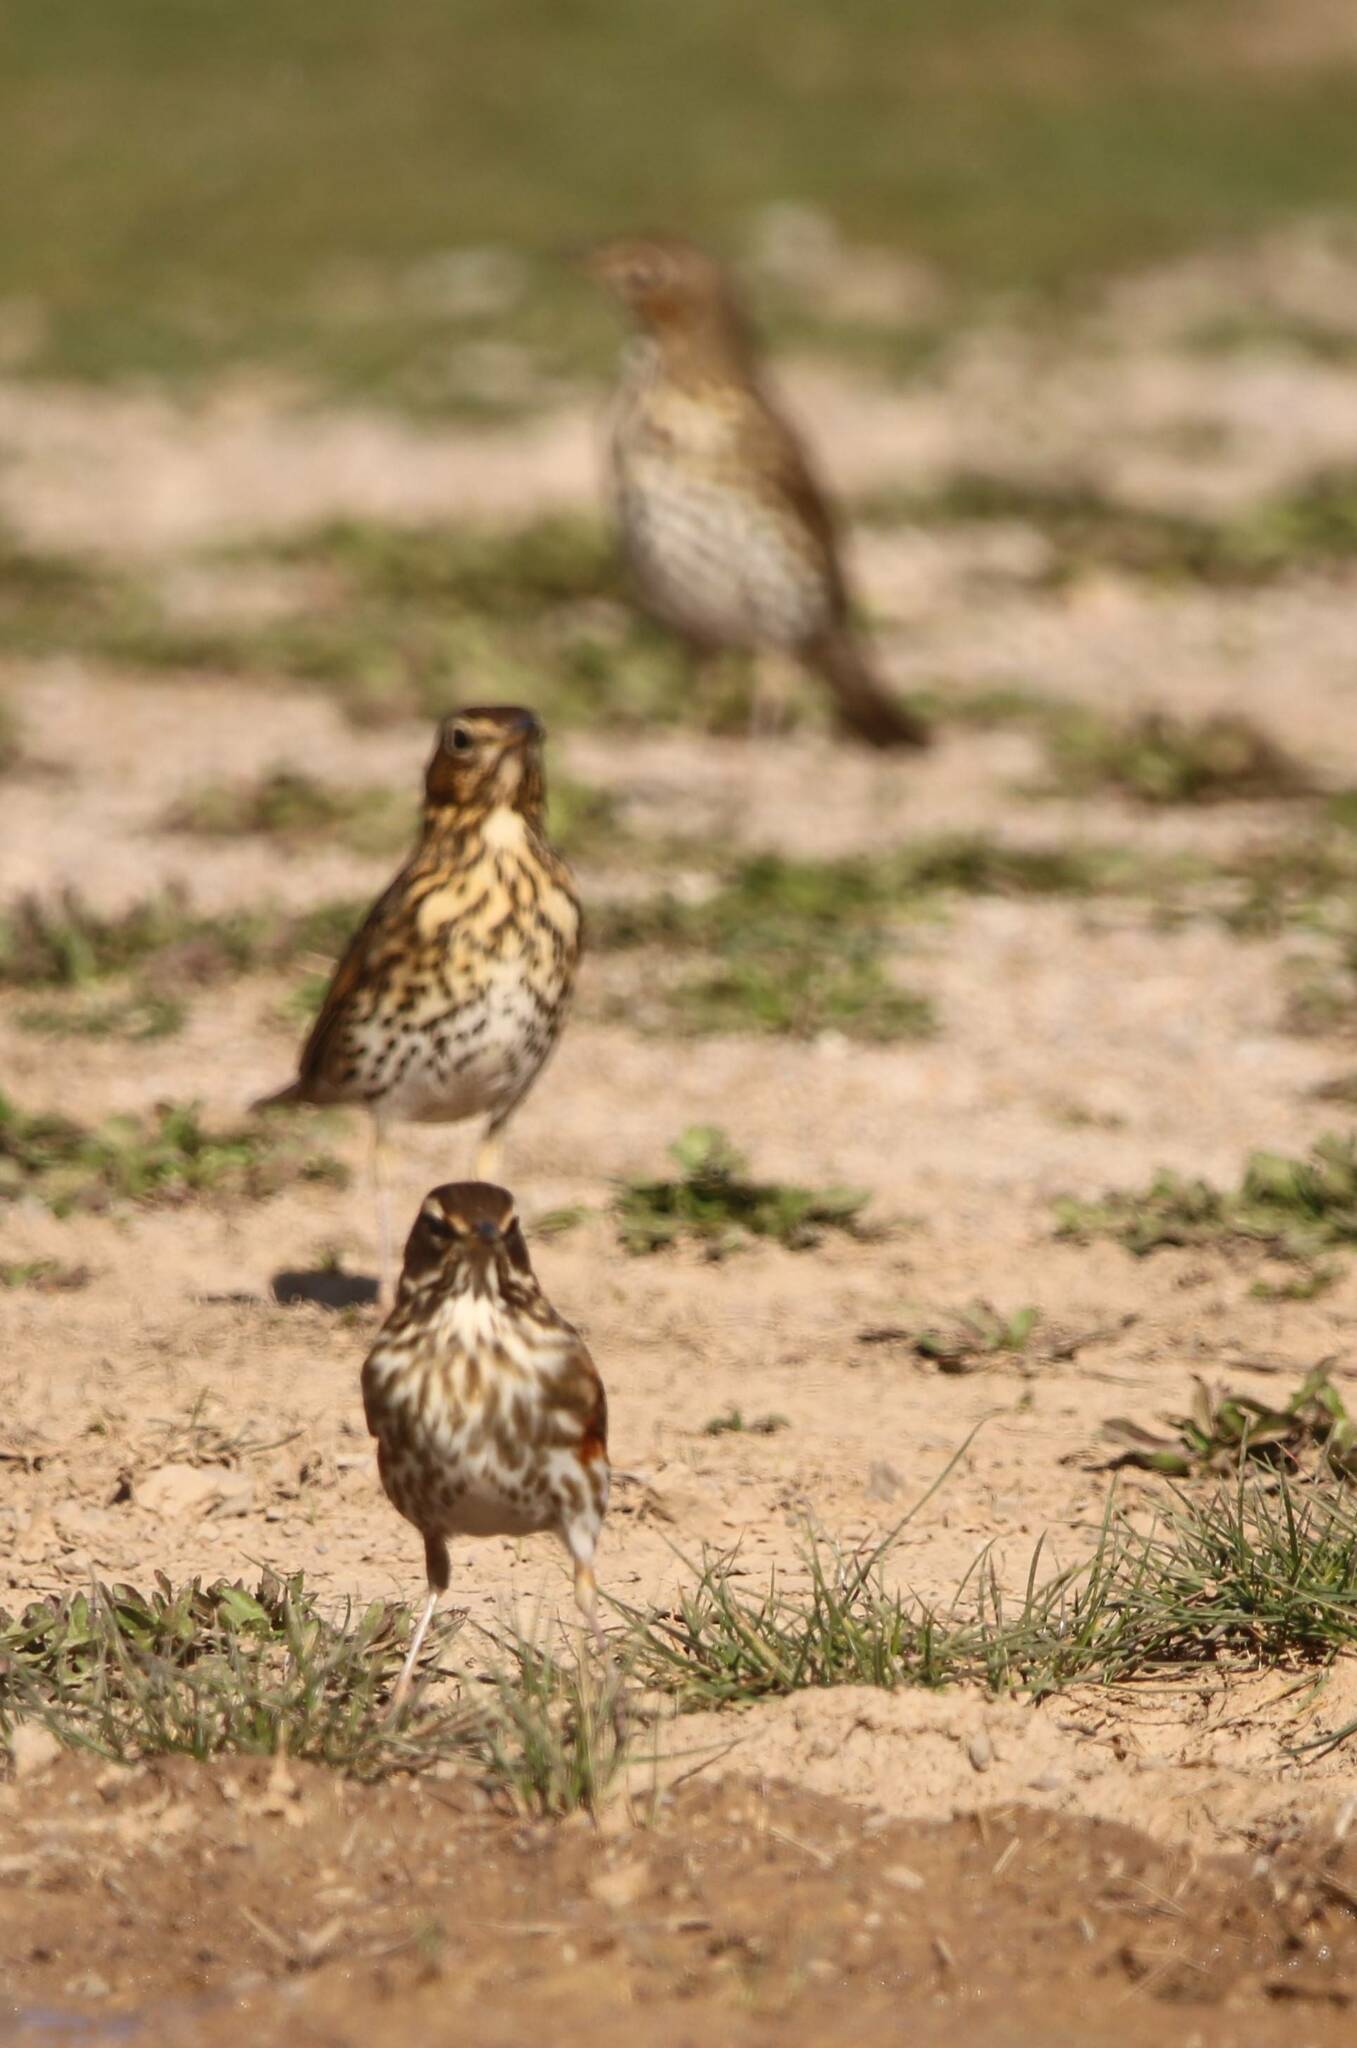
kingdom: Animalia
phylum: Chordata
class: Aves
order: Passeriformes
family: Turdidae
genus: Turdus
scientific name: Turdus philomelos
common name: Song thrush
